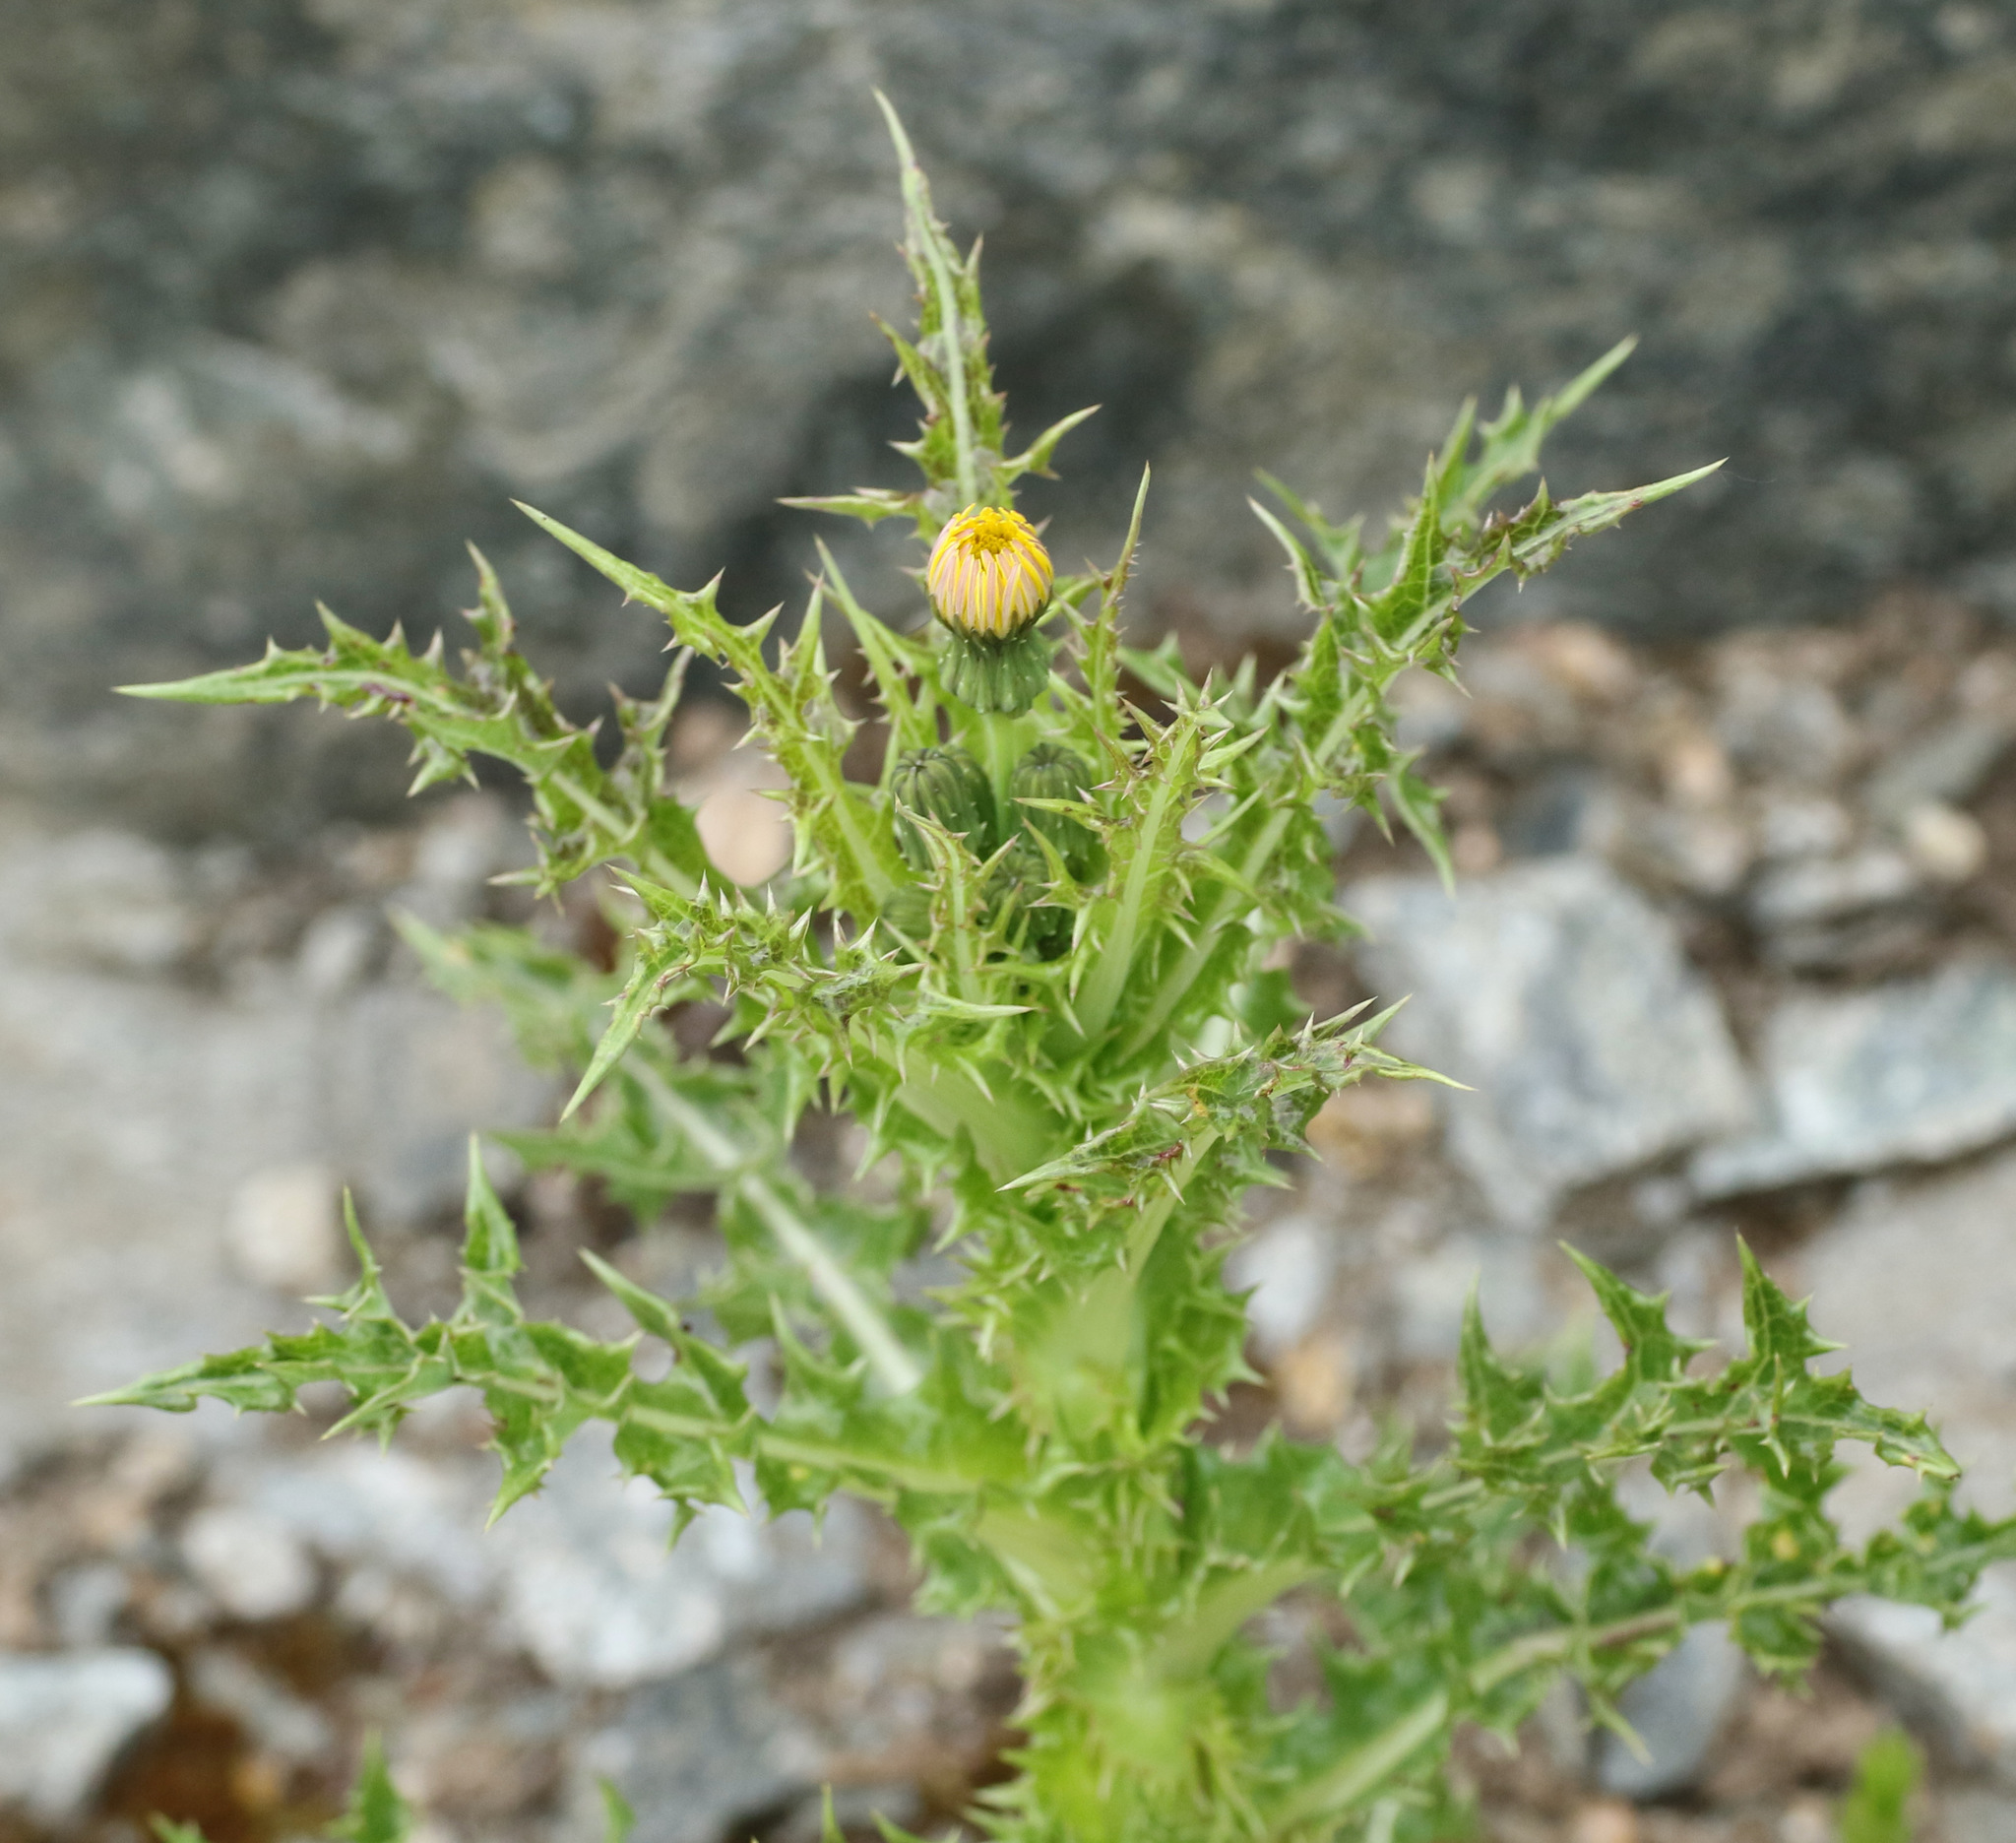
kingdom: Plantae
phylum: Tracheophyta
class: Magnoliopsida
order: Asterales
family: Asteraceae
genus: Sonchus
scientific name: Sonchus asper
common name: Prickly sow-thistle
